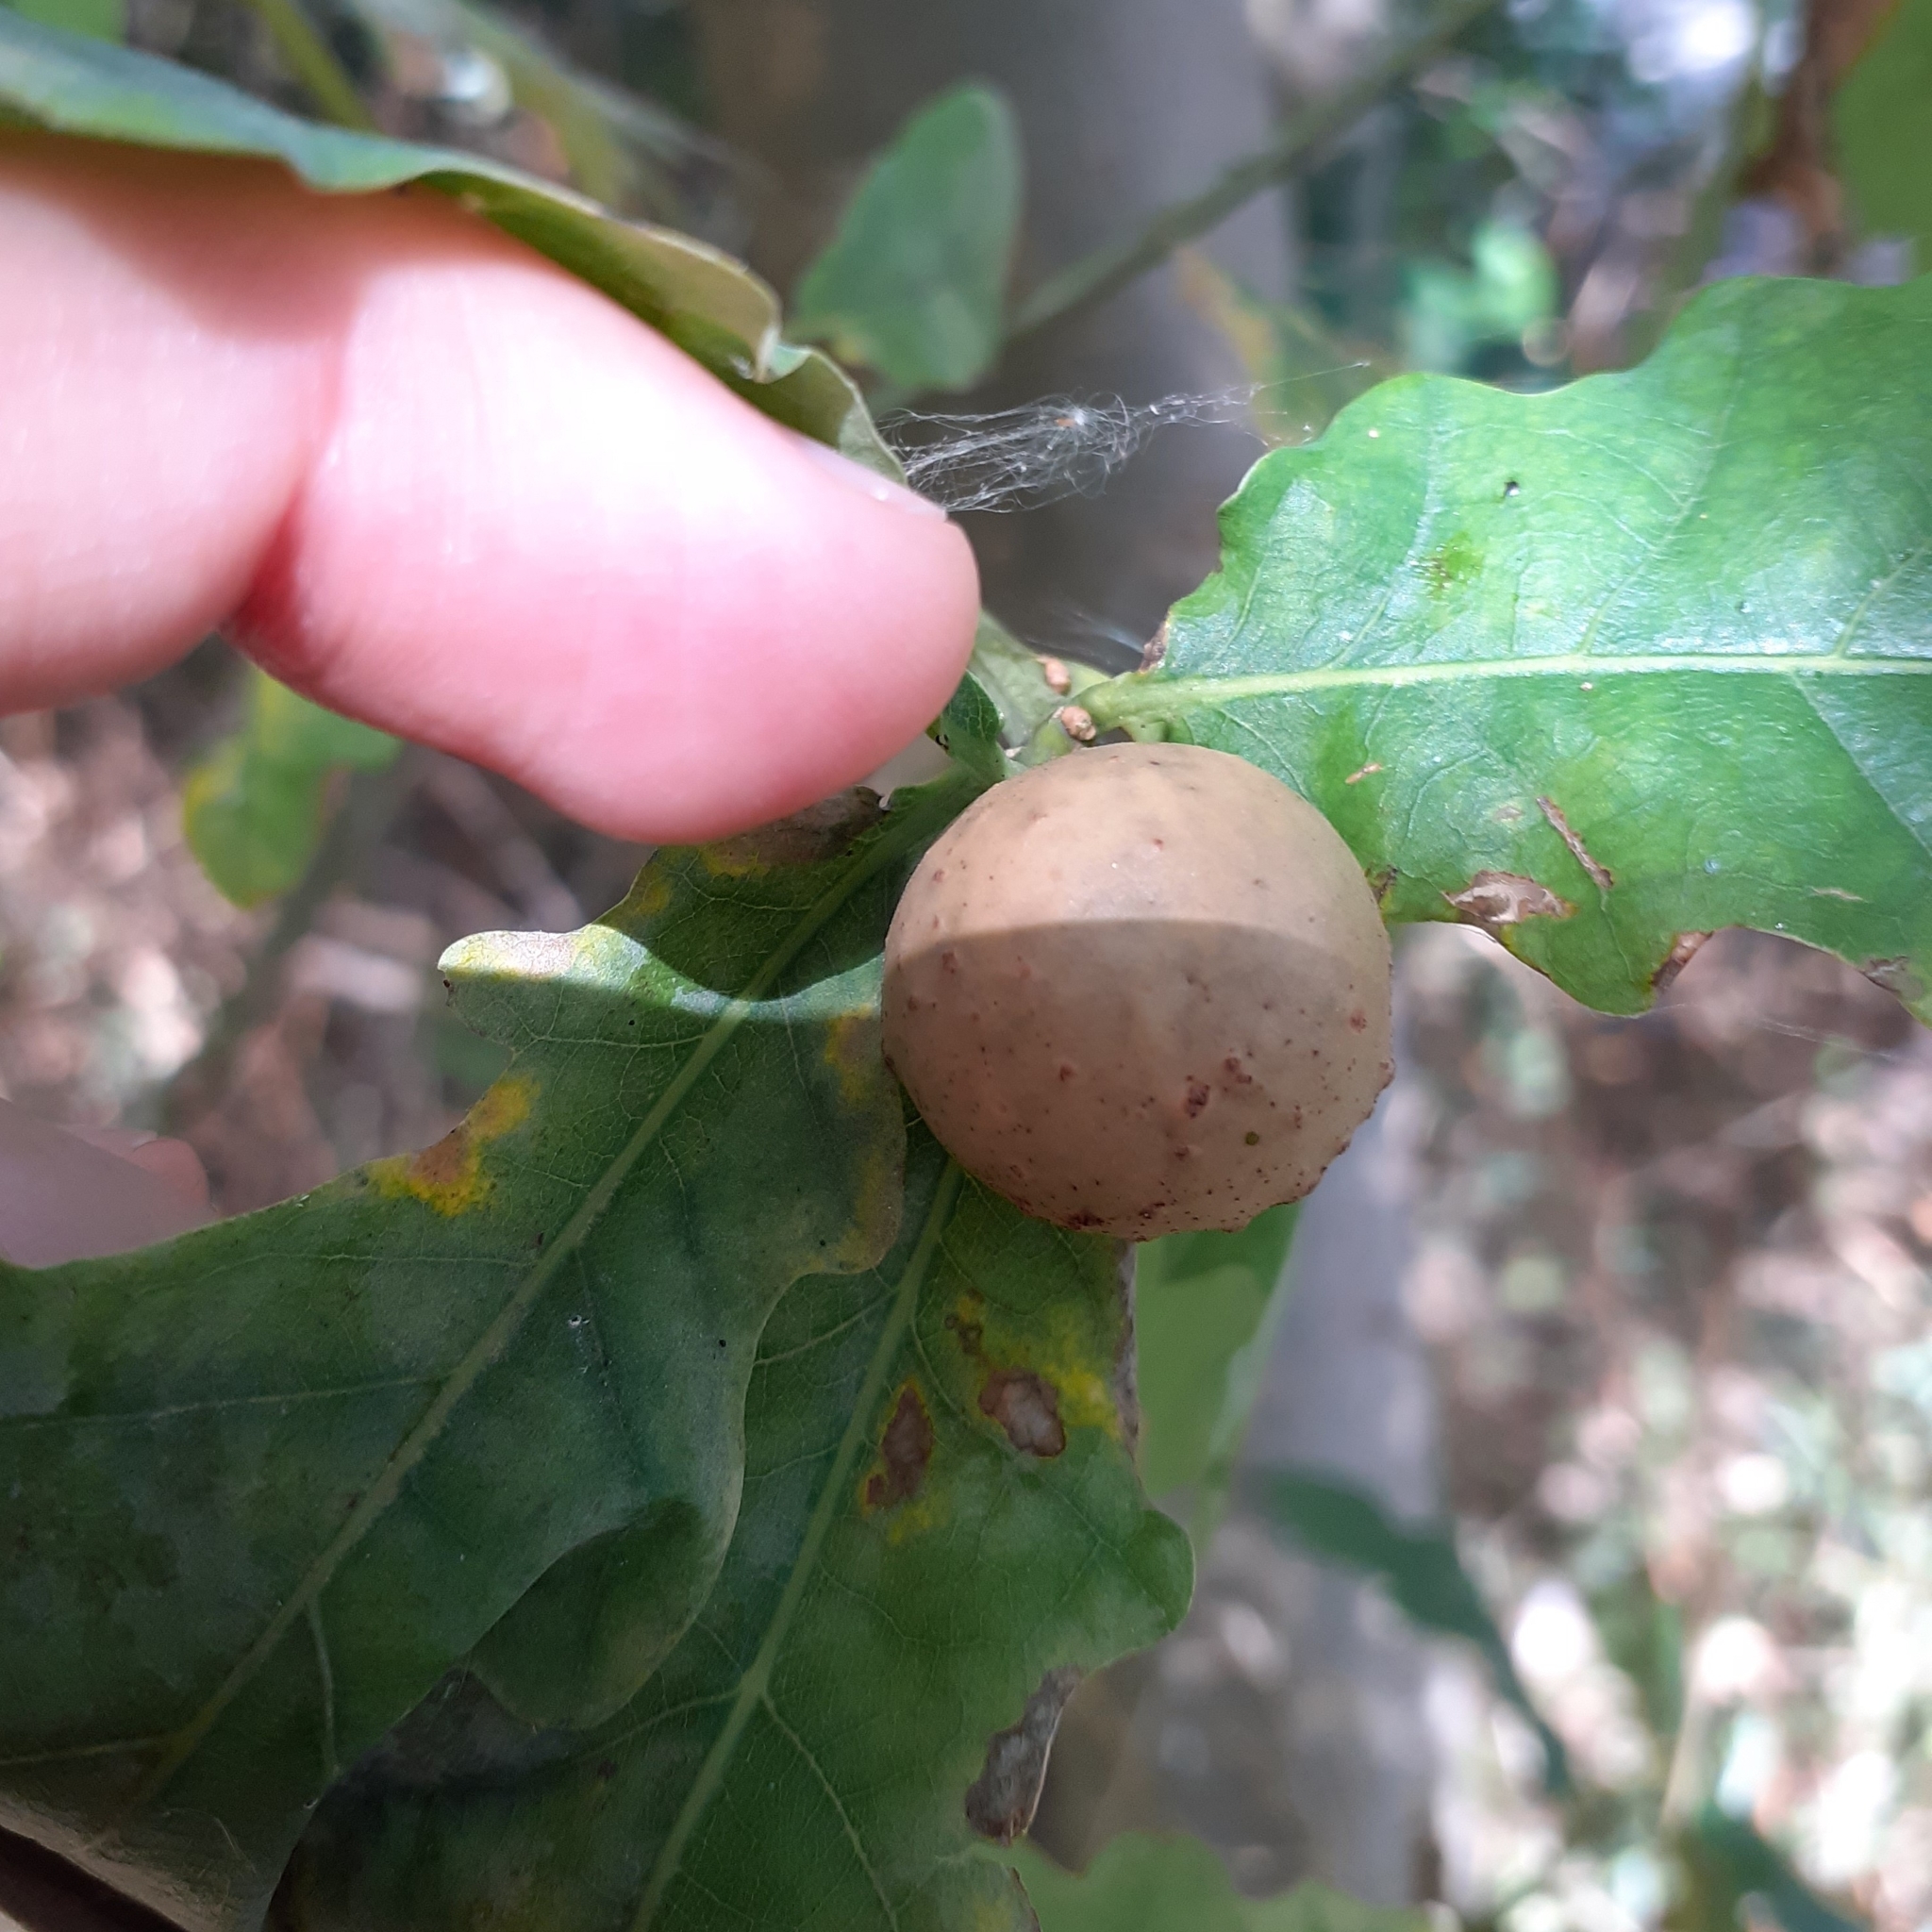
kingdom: Animalia
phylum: Arthropoda
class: Insecta
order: Hymenoptera
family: Cynipidae
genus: Andricus
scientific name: Andricus kollari
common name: Marble gall
